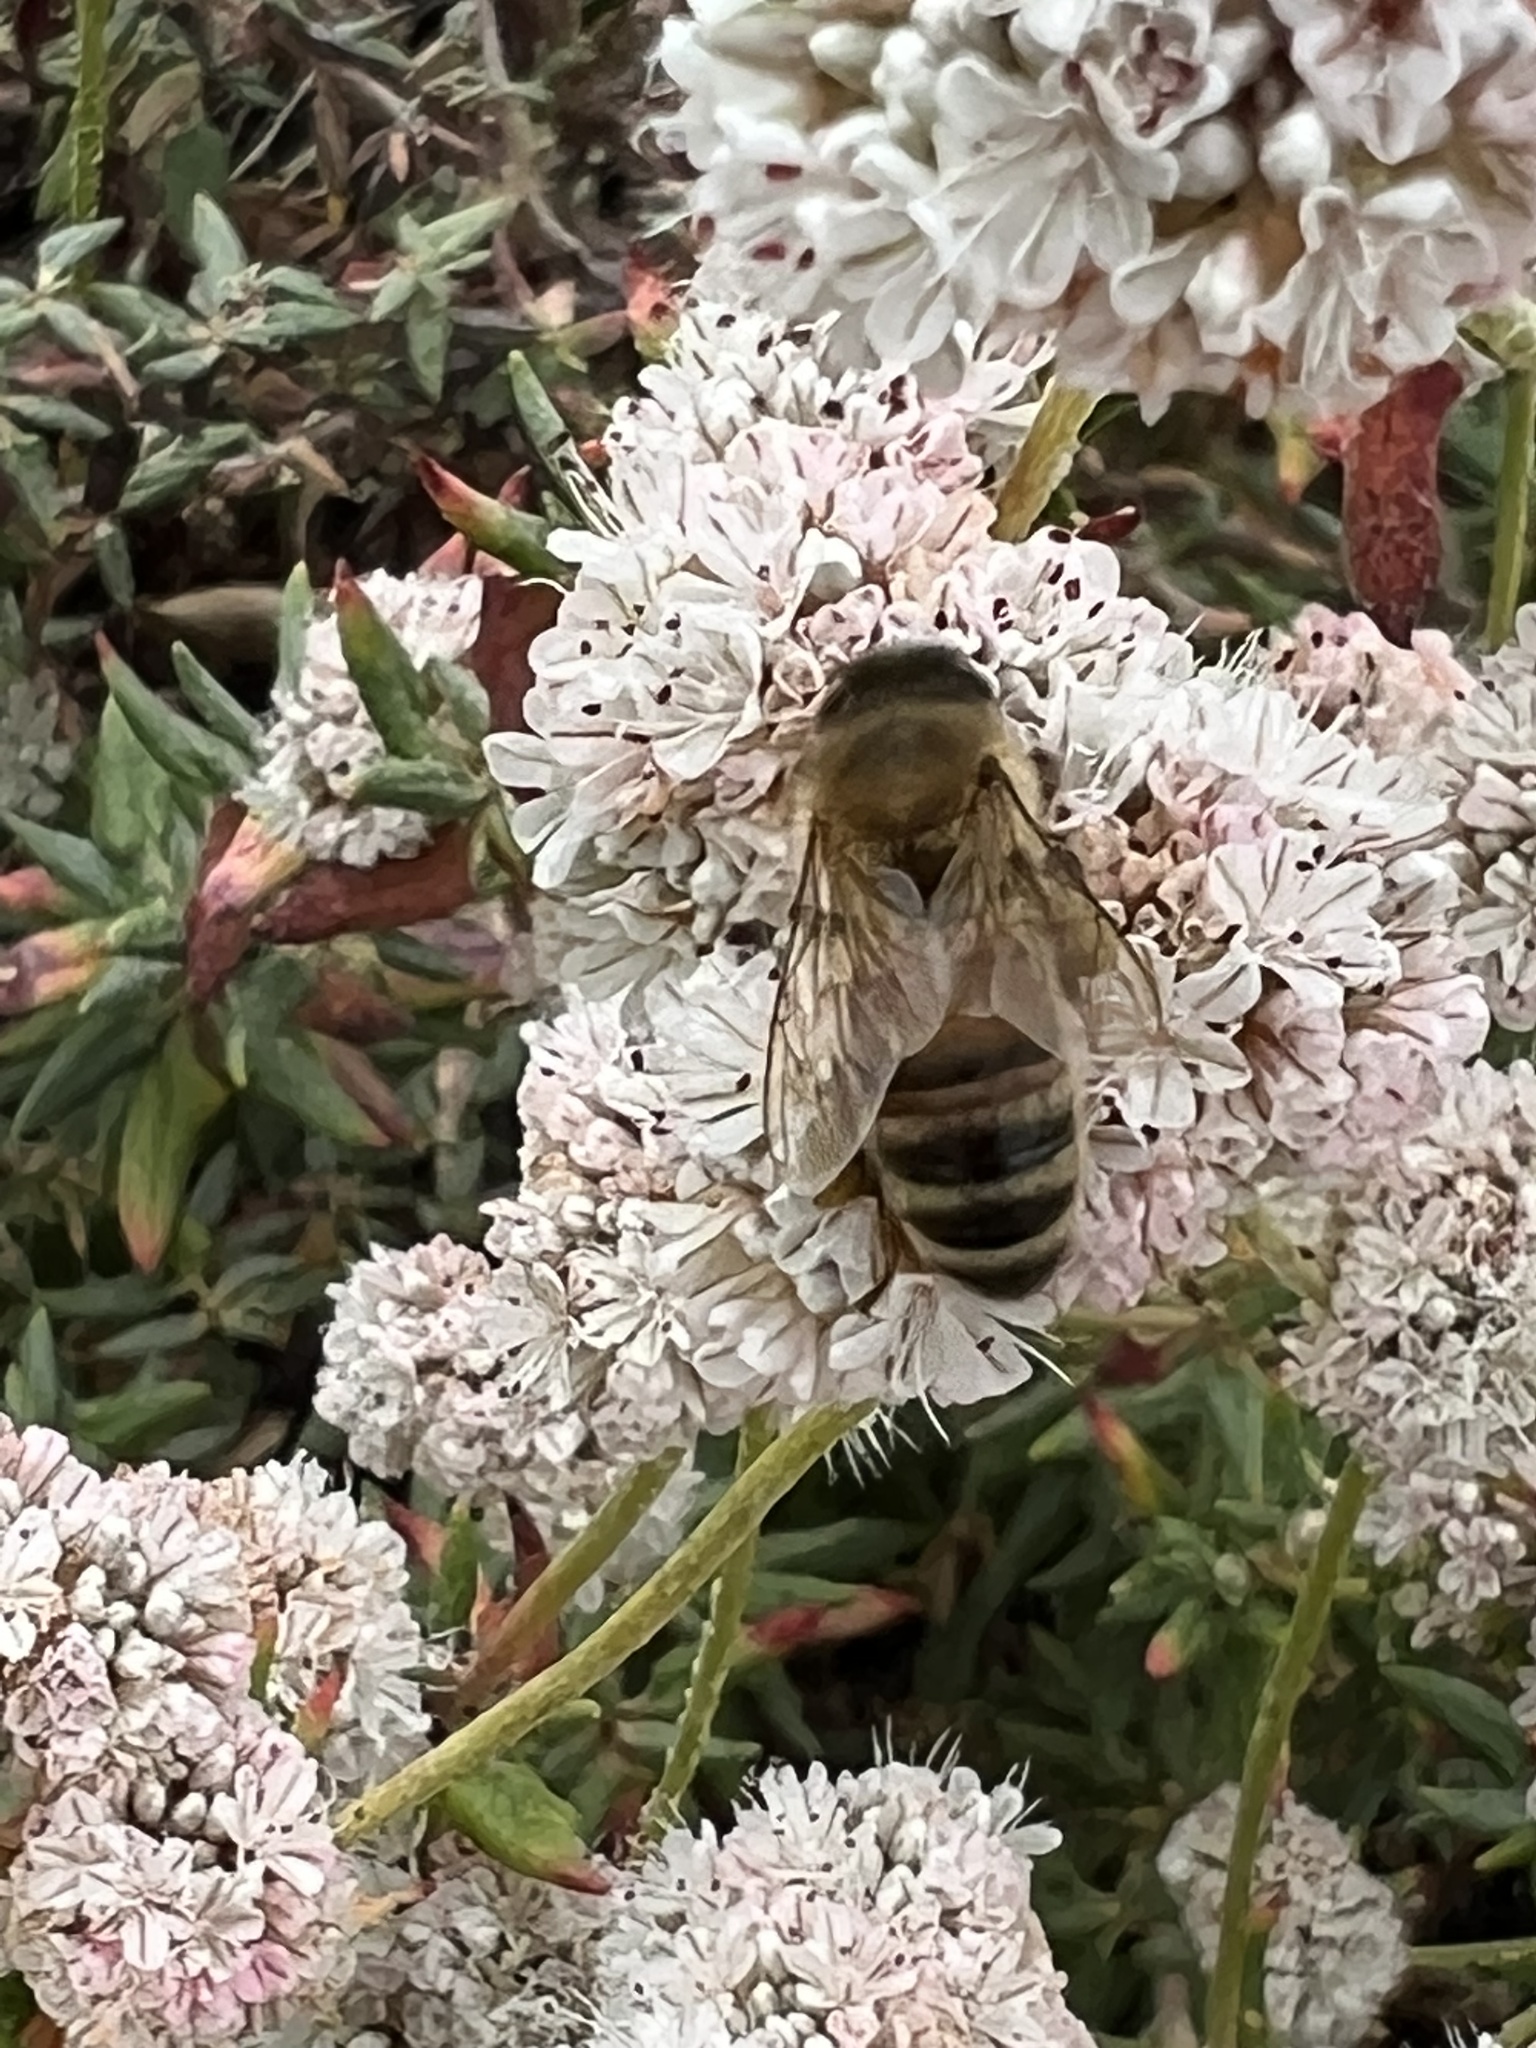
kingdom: Animalia
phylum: Arthropoda
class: Insecta
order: Hymenoptera
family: Apidae
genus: Apis
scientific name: Apis mellifera
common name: Honey bee
